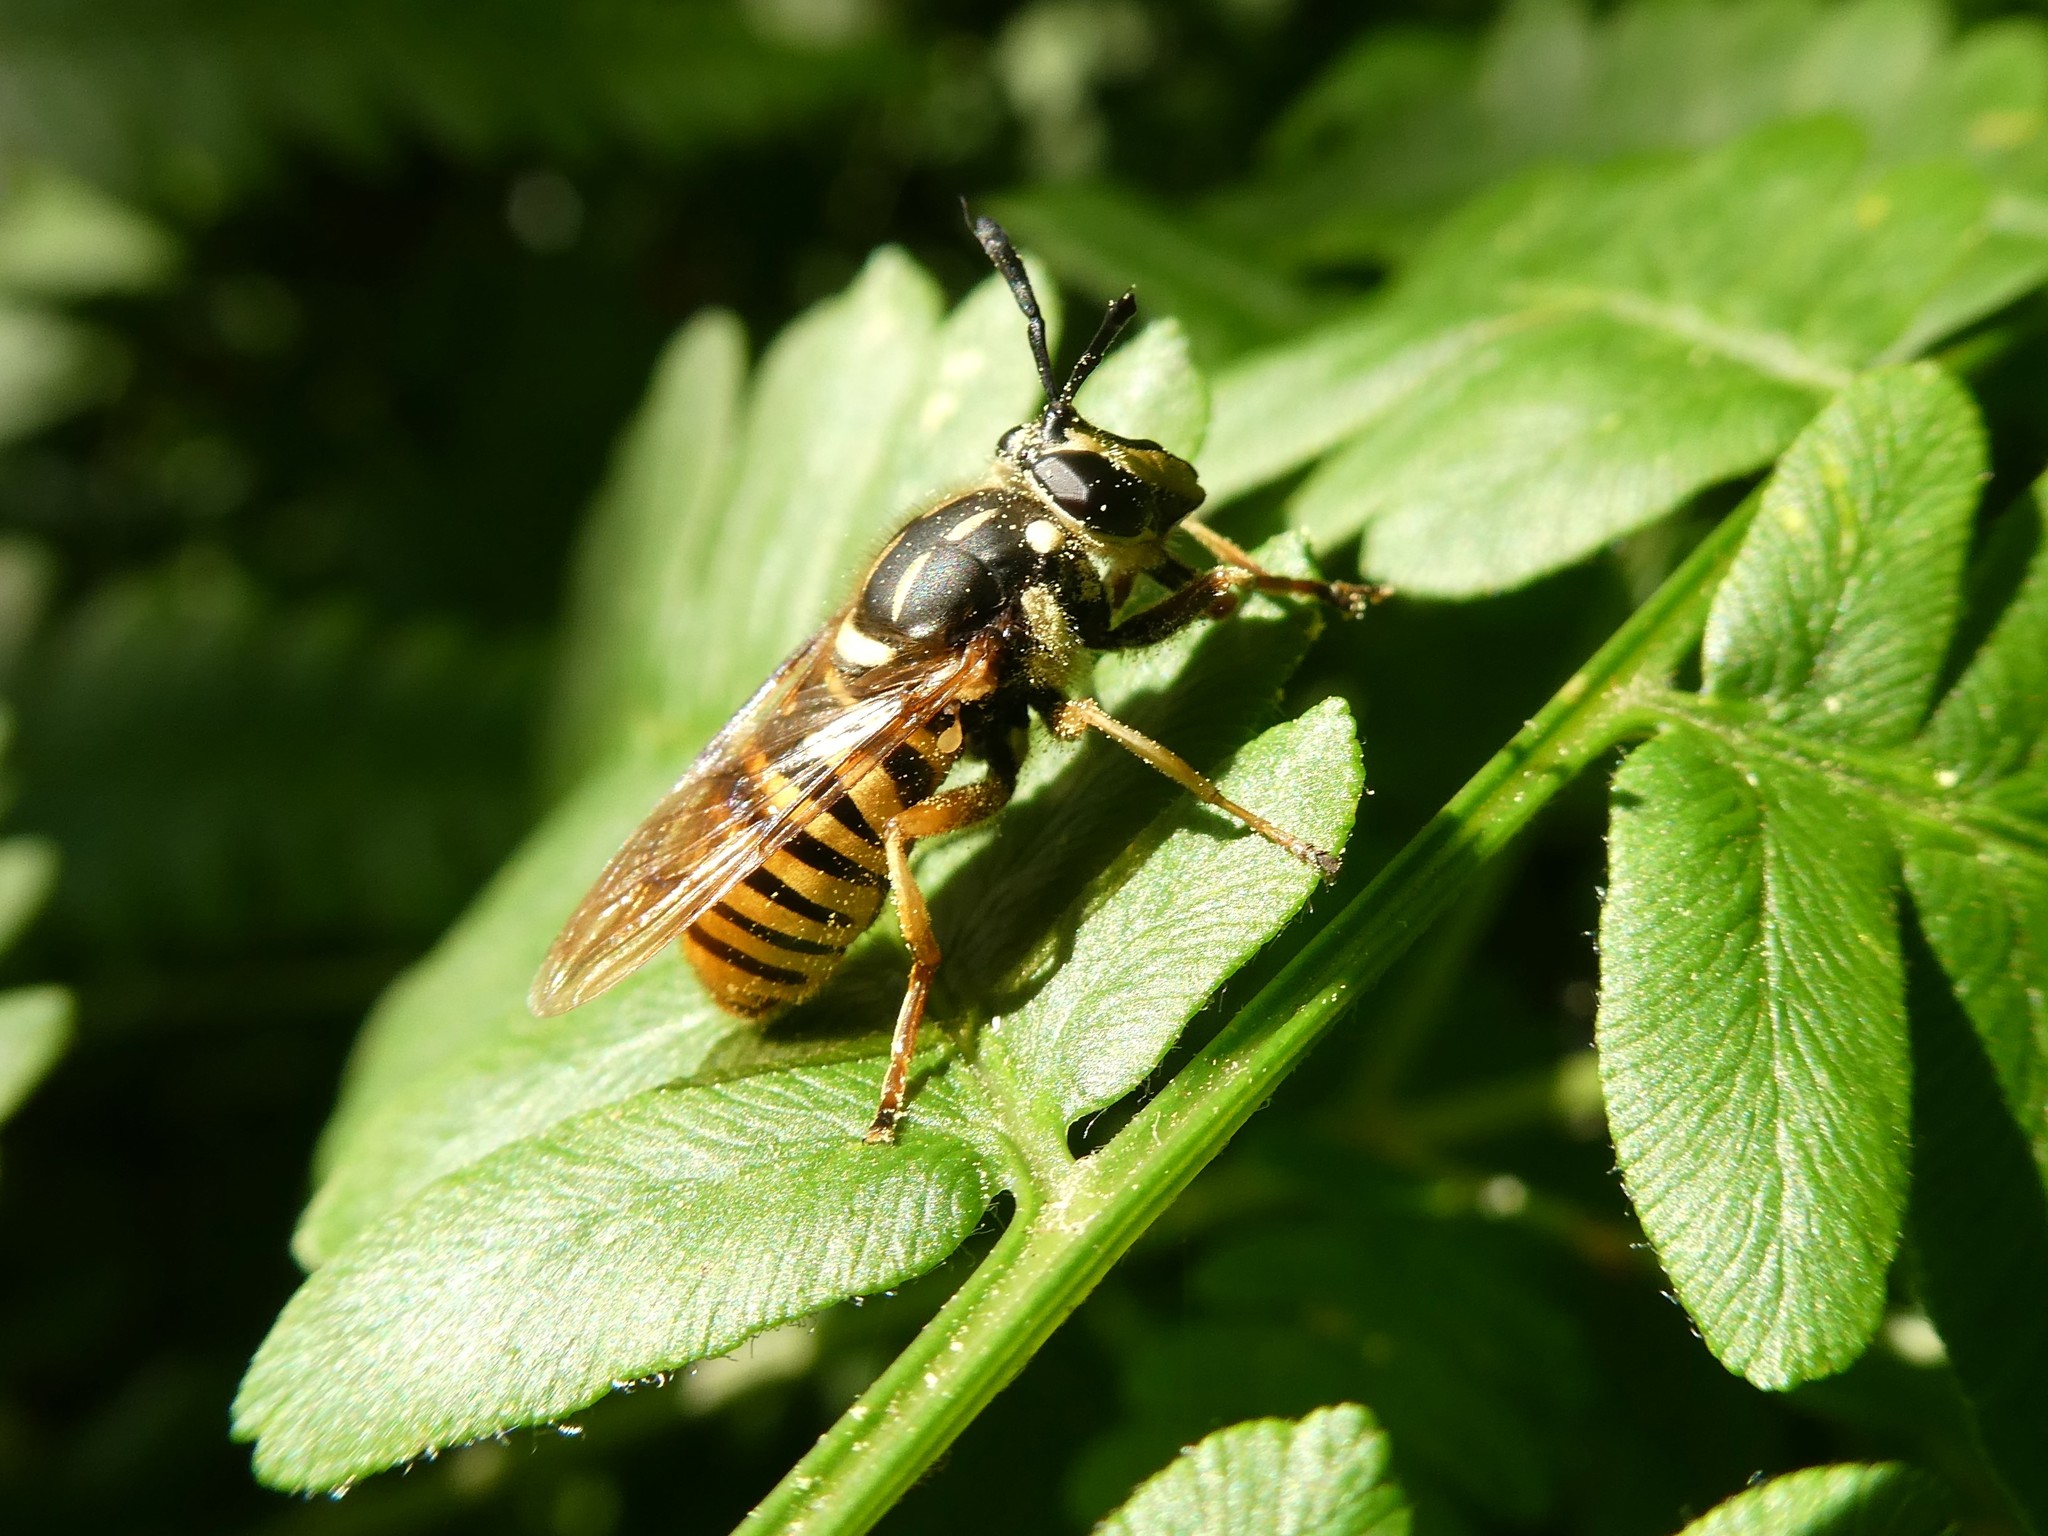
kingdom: Animalia
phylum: Arthropoda
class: Insecta
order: Diptera
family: Syrphidae
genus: Sphecomyia
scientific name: Sphecomyia vittata
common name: Long-horned yellowjacket fly
